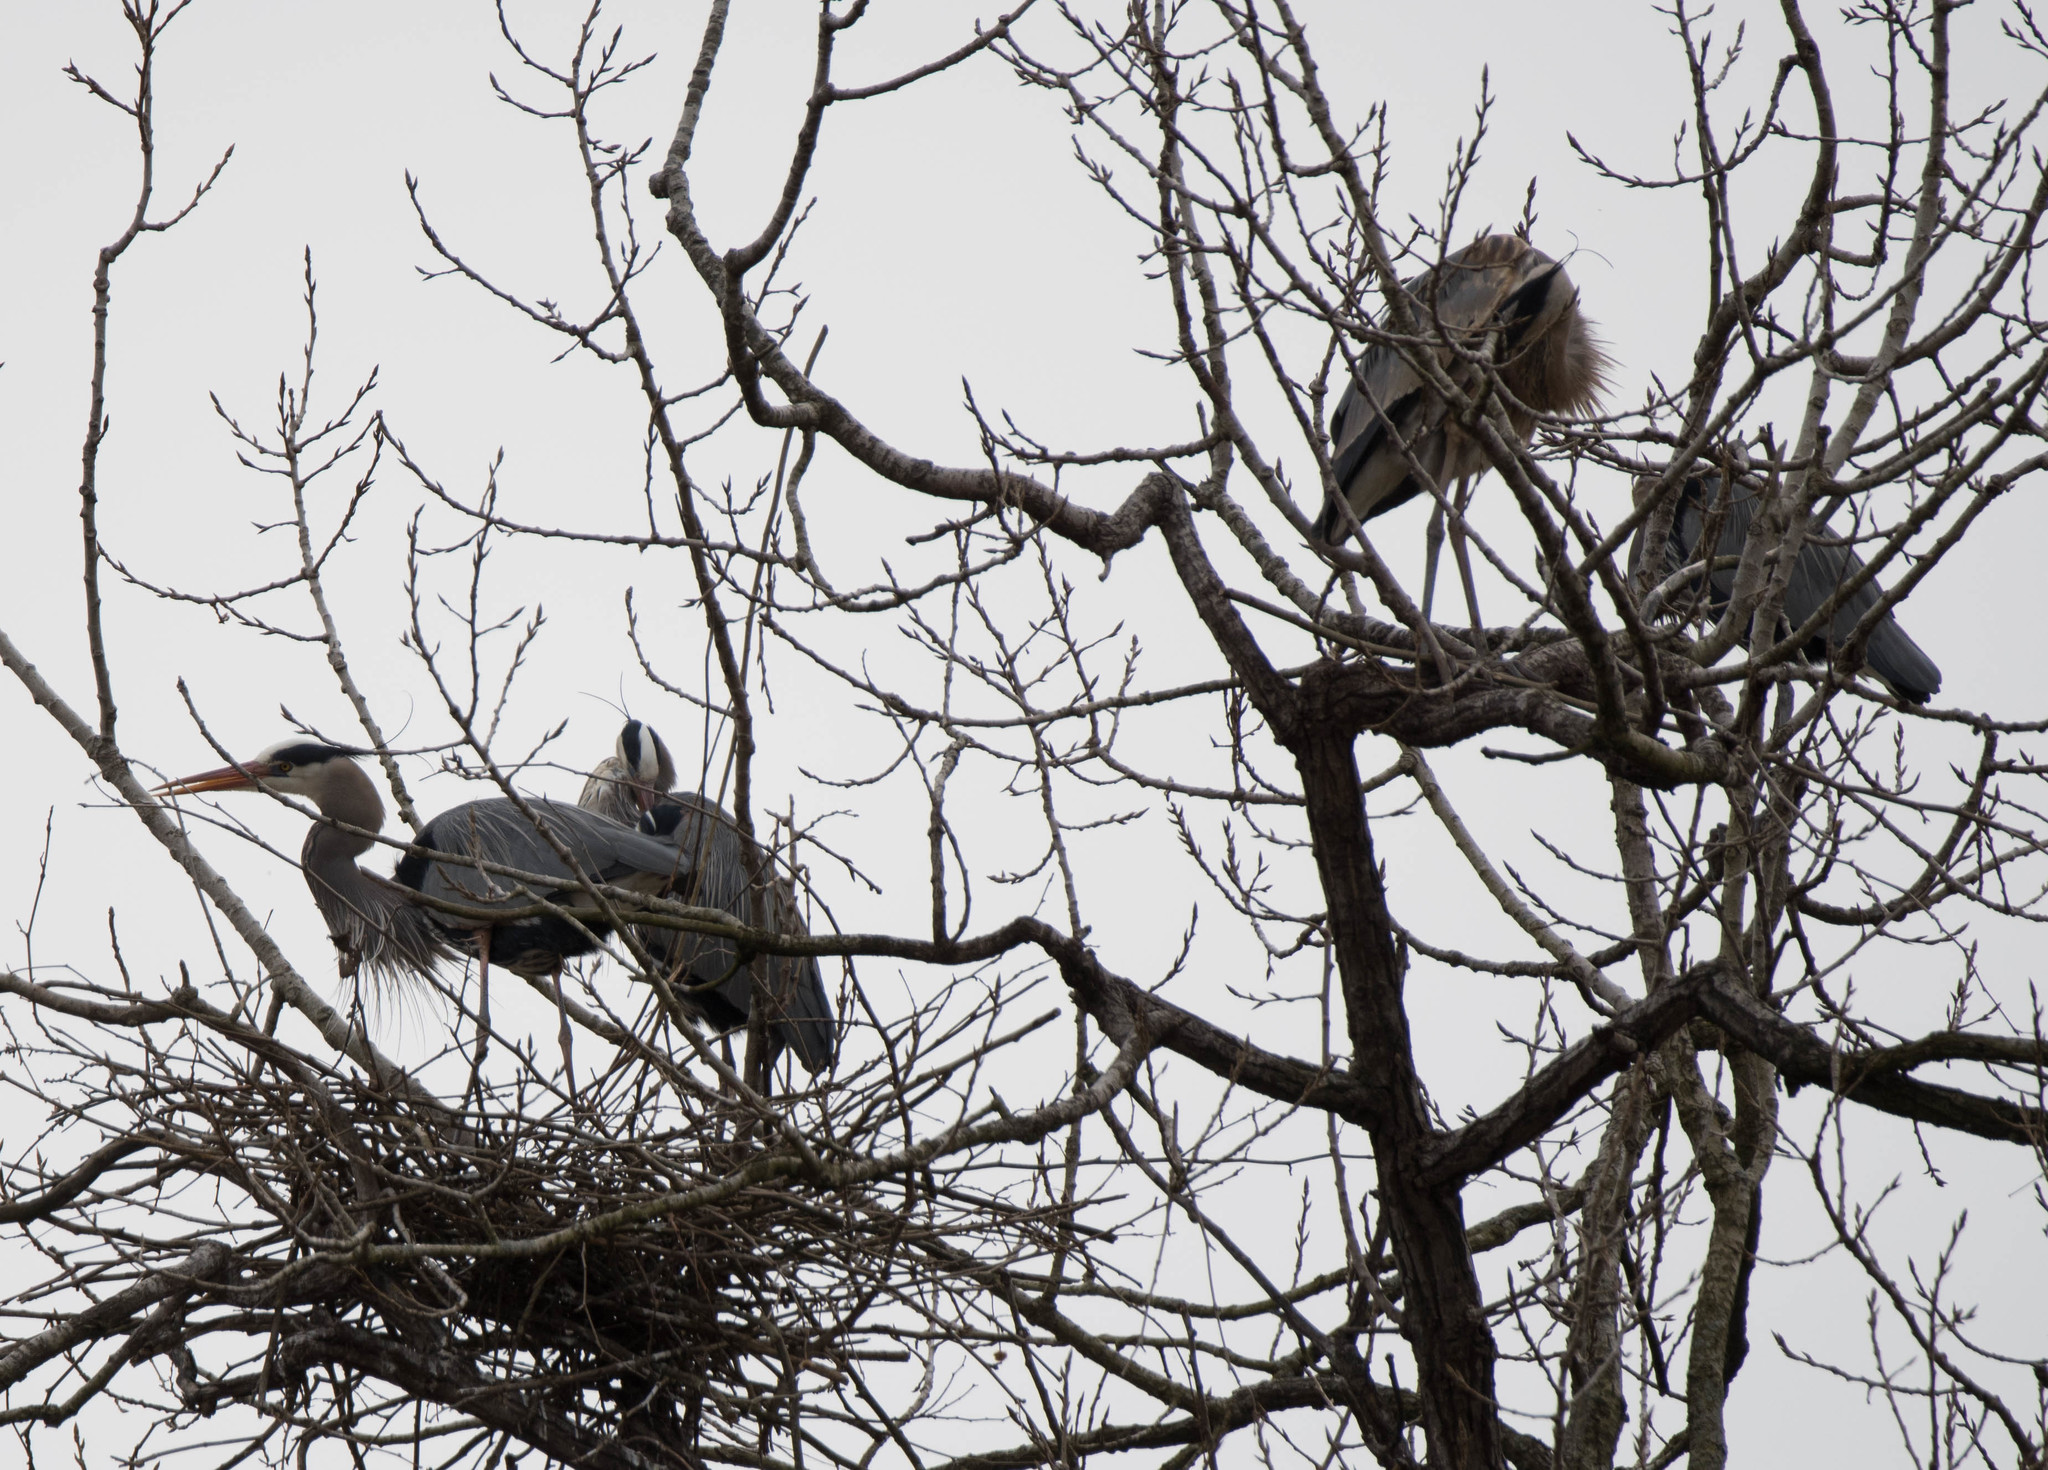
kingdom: Animalia
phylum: Chordata
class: Aves
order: Pelecaniformes
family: Ardeidae
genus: Ardea
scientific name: Ardea herodias
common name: Great blue heron
